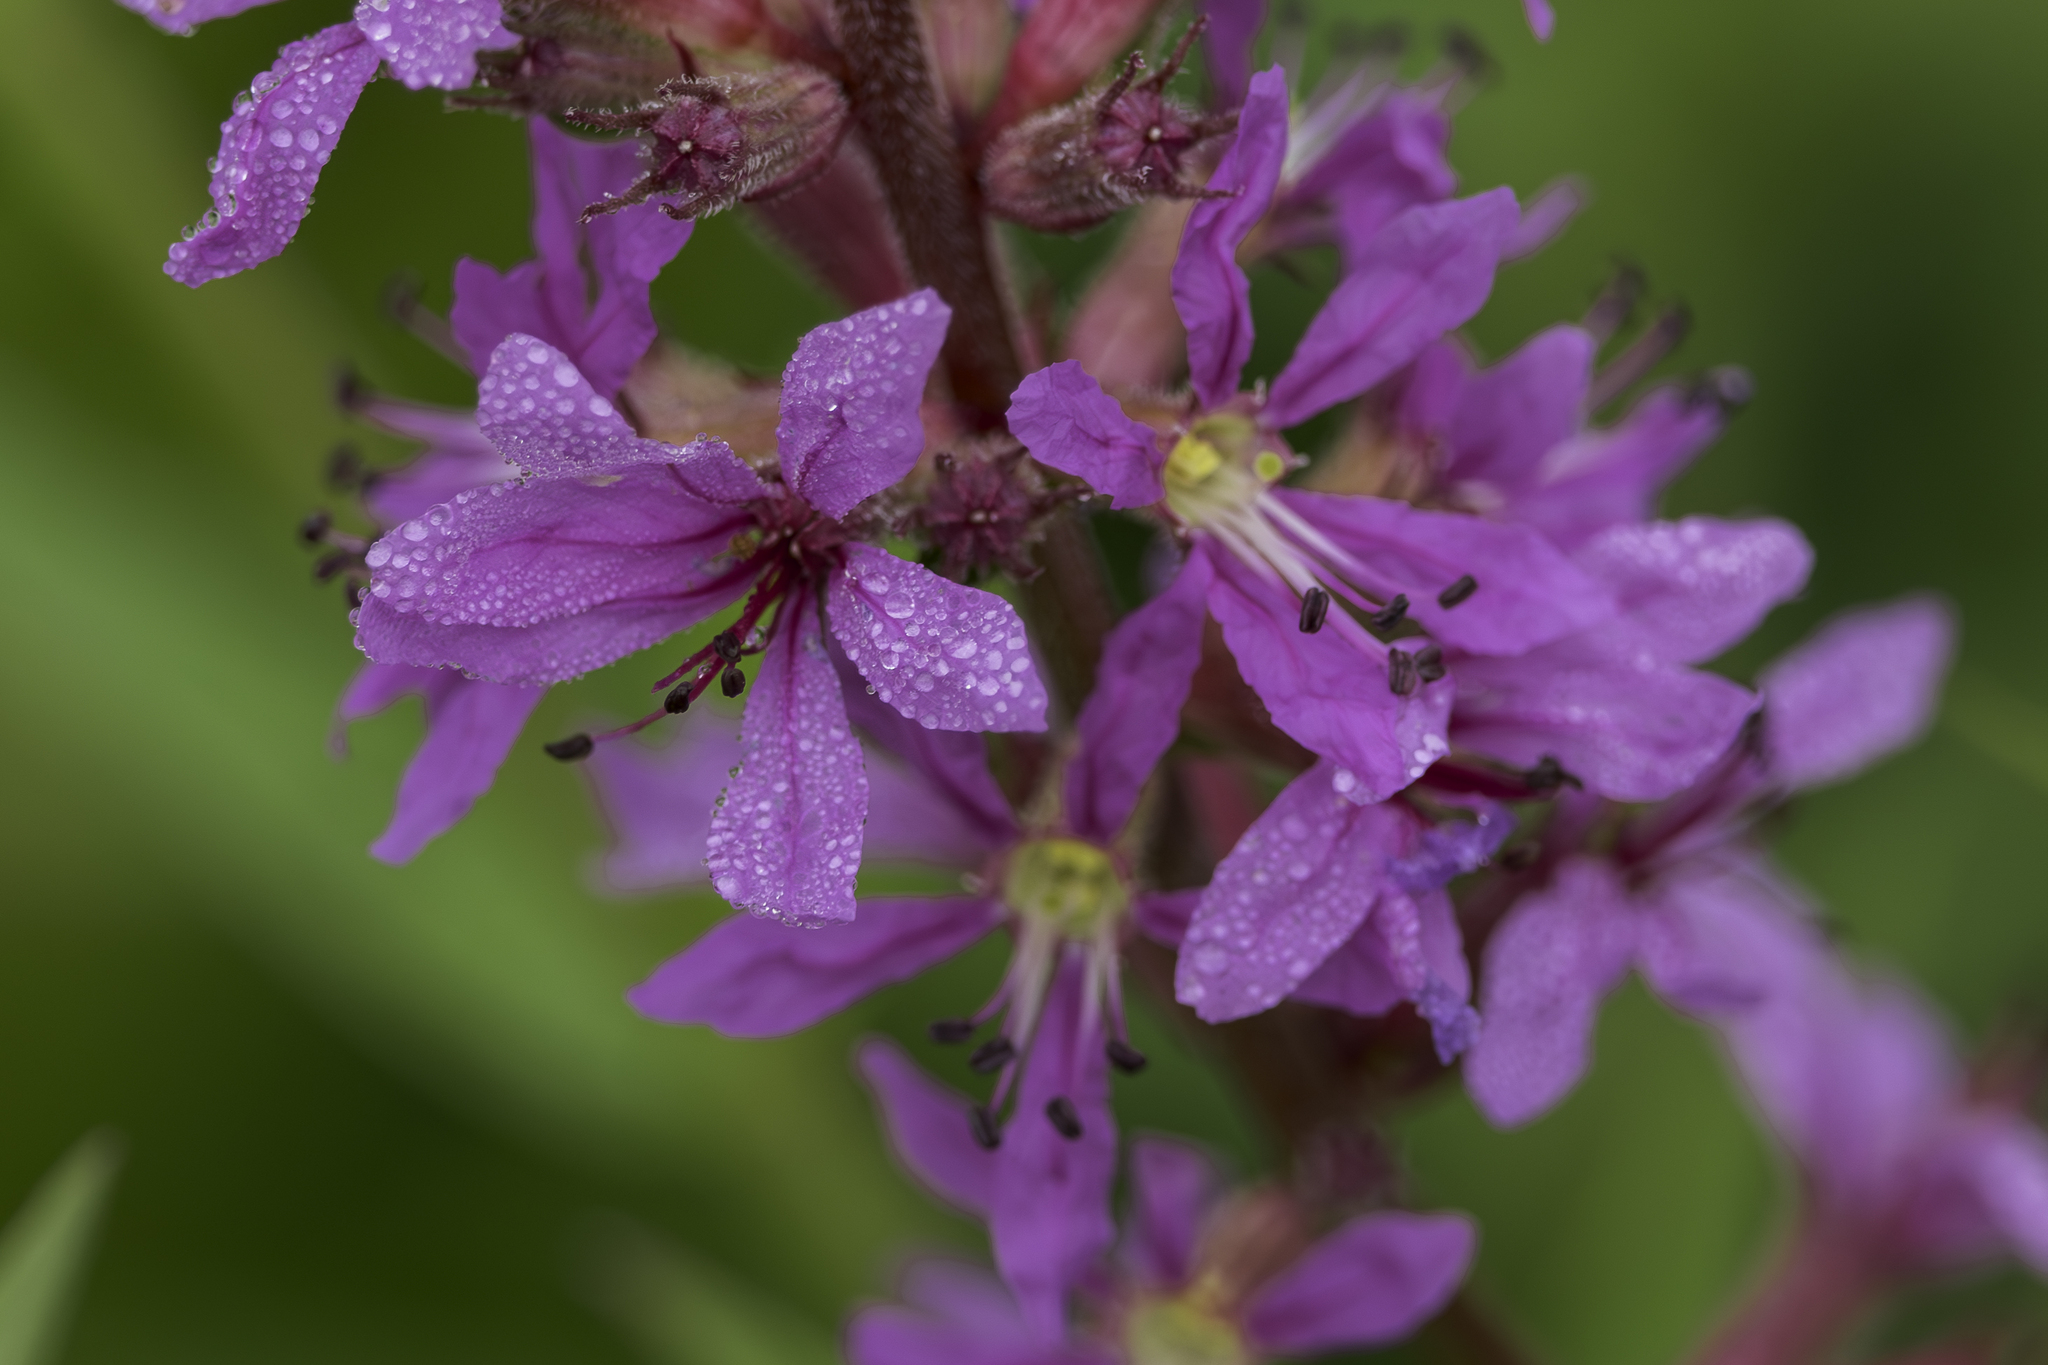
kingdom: Plantae
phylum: Tracheophyta
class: Magnoliopsida
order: Myrtales
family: Lythraceae
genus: Lythrum
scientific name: Lythrum salicaria
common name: Purple loosestrife
